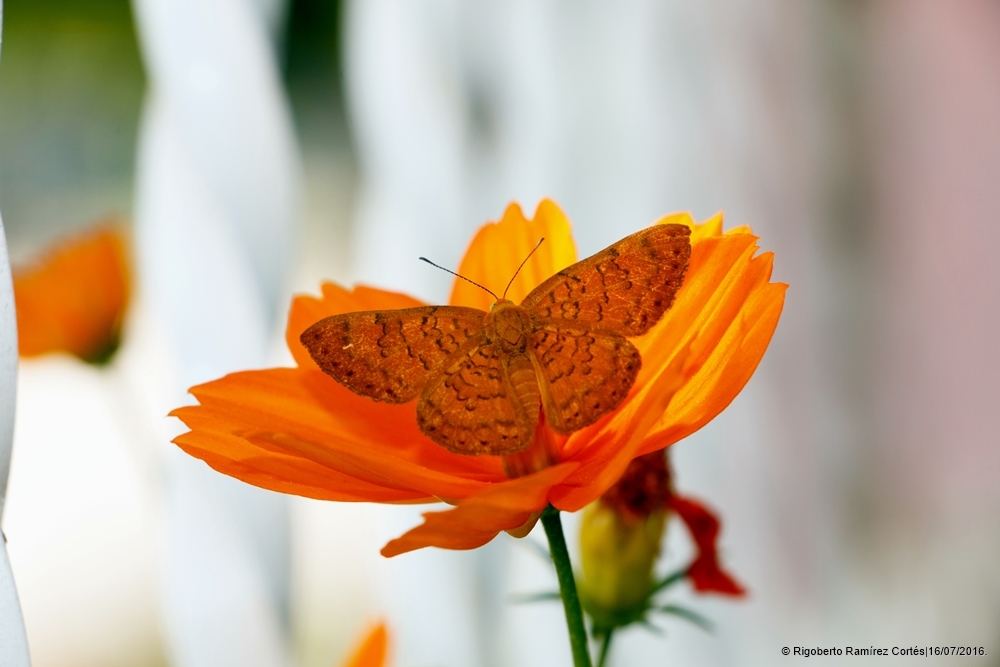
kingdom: Animalia
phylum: Arthropoda
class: Insecta
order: Lepidoptera
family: Lycaenidae
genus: Emesis
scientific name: Emesis mandana
